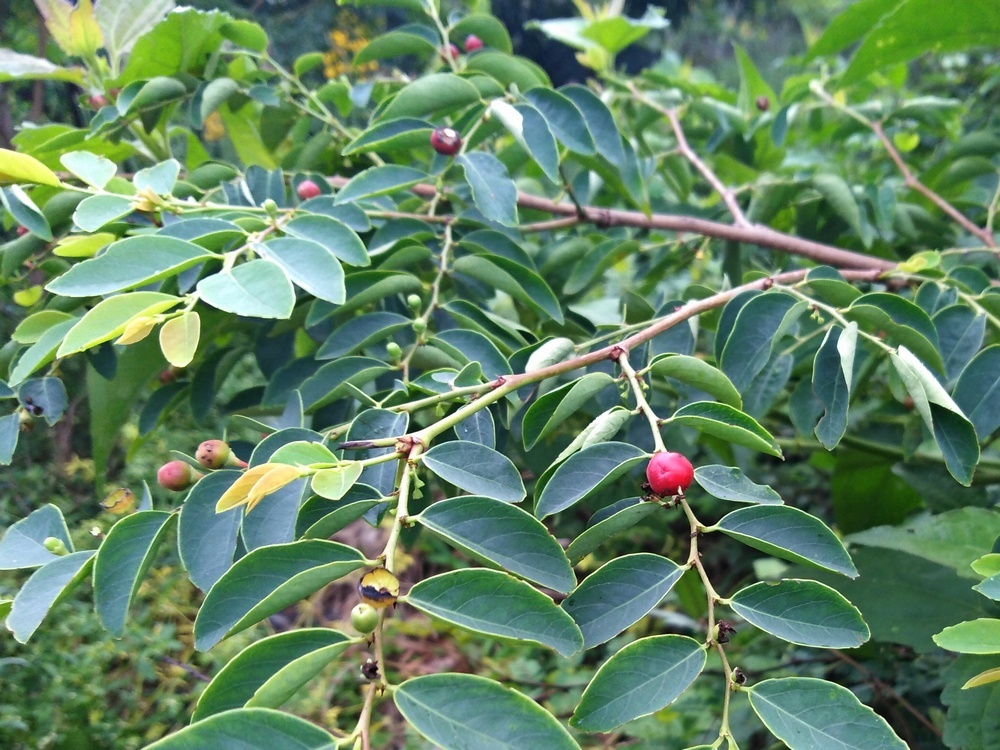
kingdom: Plantae
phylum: Tracheophyta
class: Magnoliopsida
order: Malpighiales
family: Phyllanthaceae
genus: Breynia
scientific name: Breynia vitis-idaea
